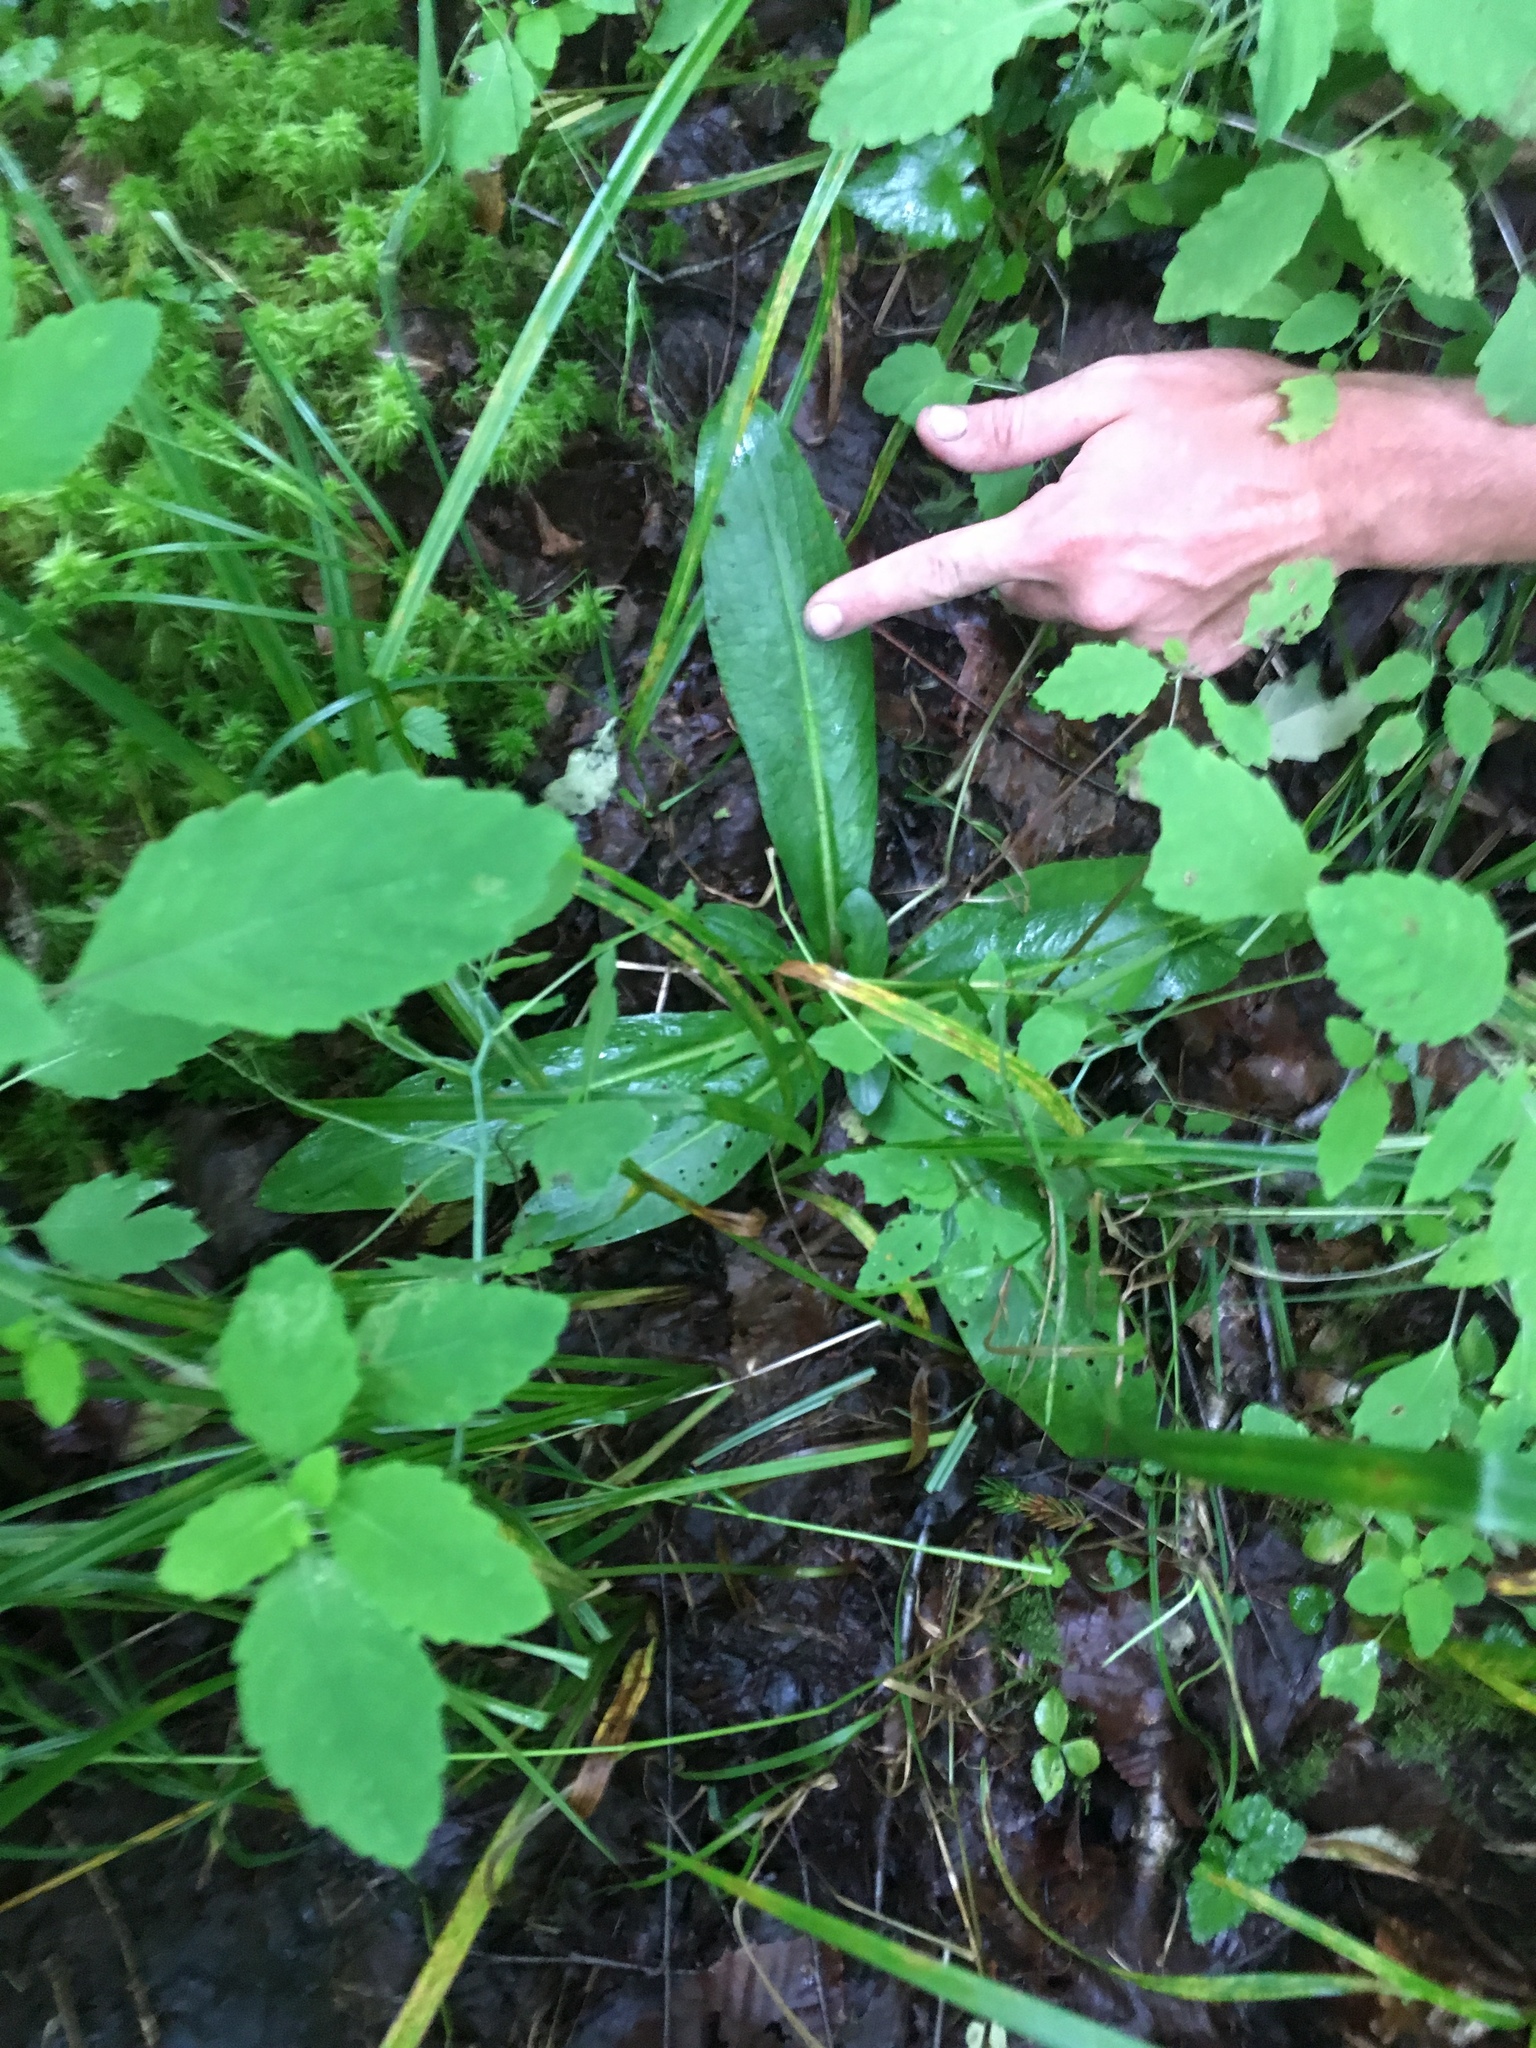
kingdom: Plantae
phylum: Tracheophyta
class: Magnoliopsida
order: Saxifragales
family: Saxifragaceae
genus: Micranthes
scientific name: Micranthes pensylvanica
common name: Marsh saxifrage
